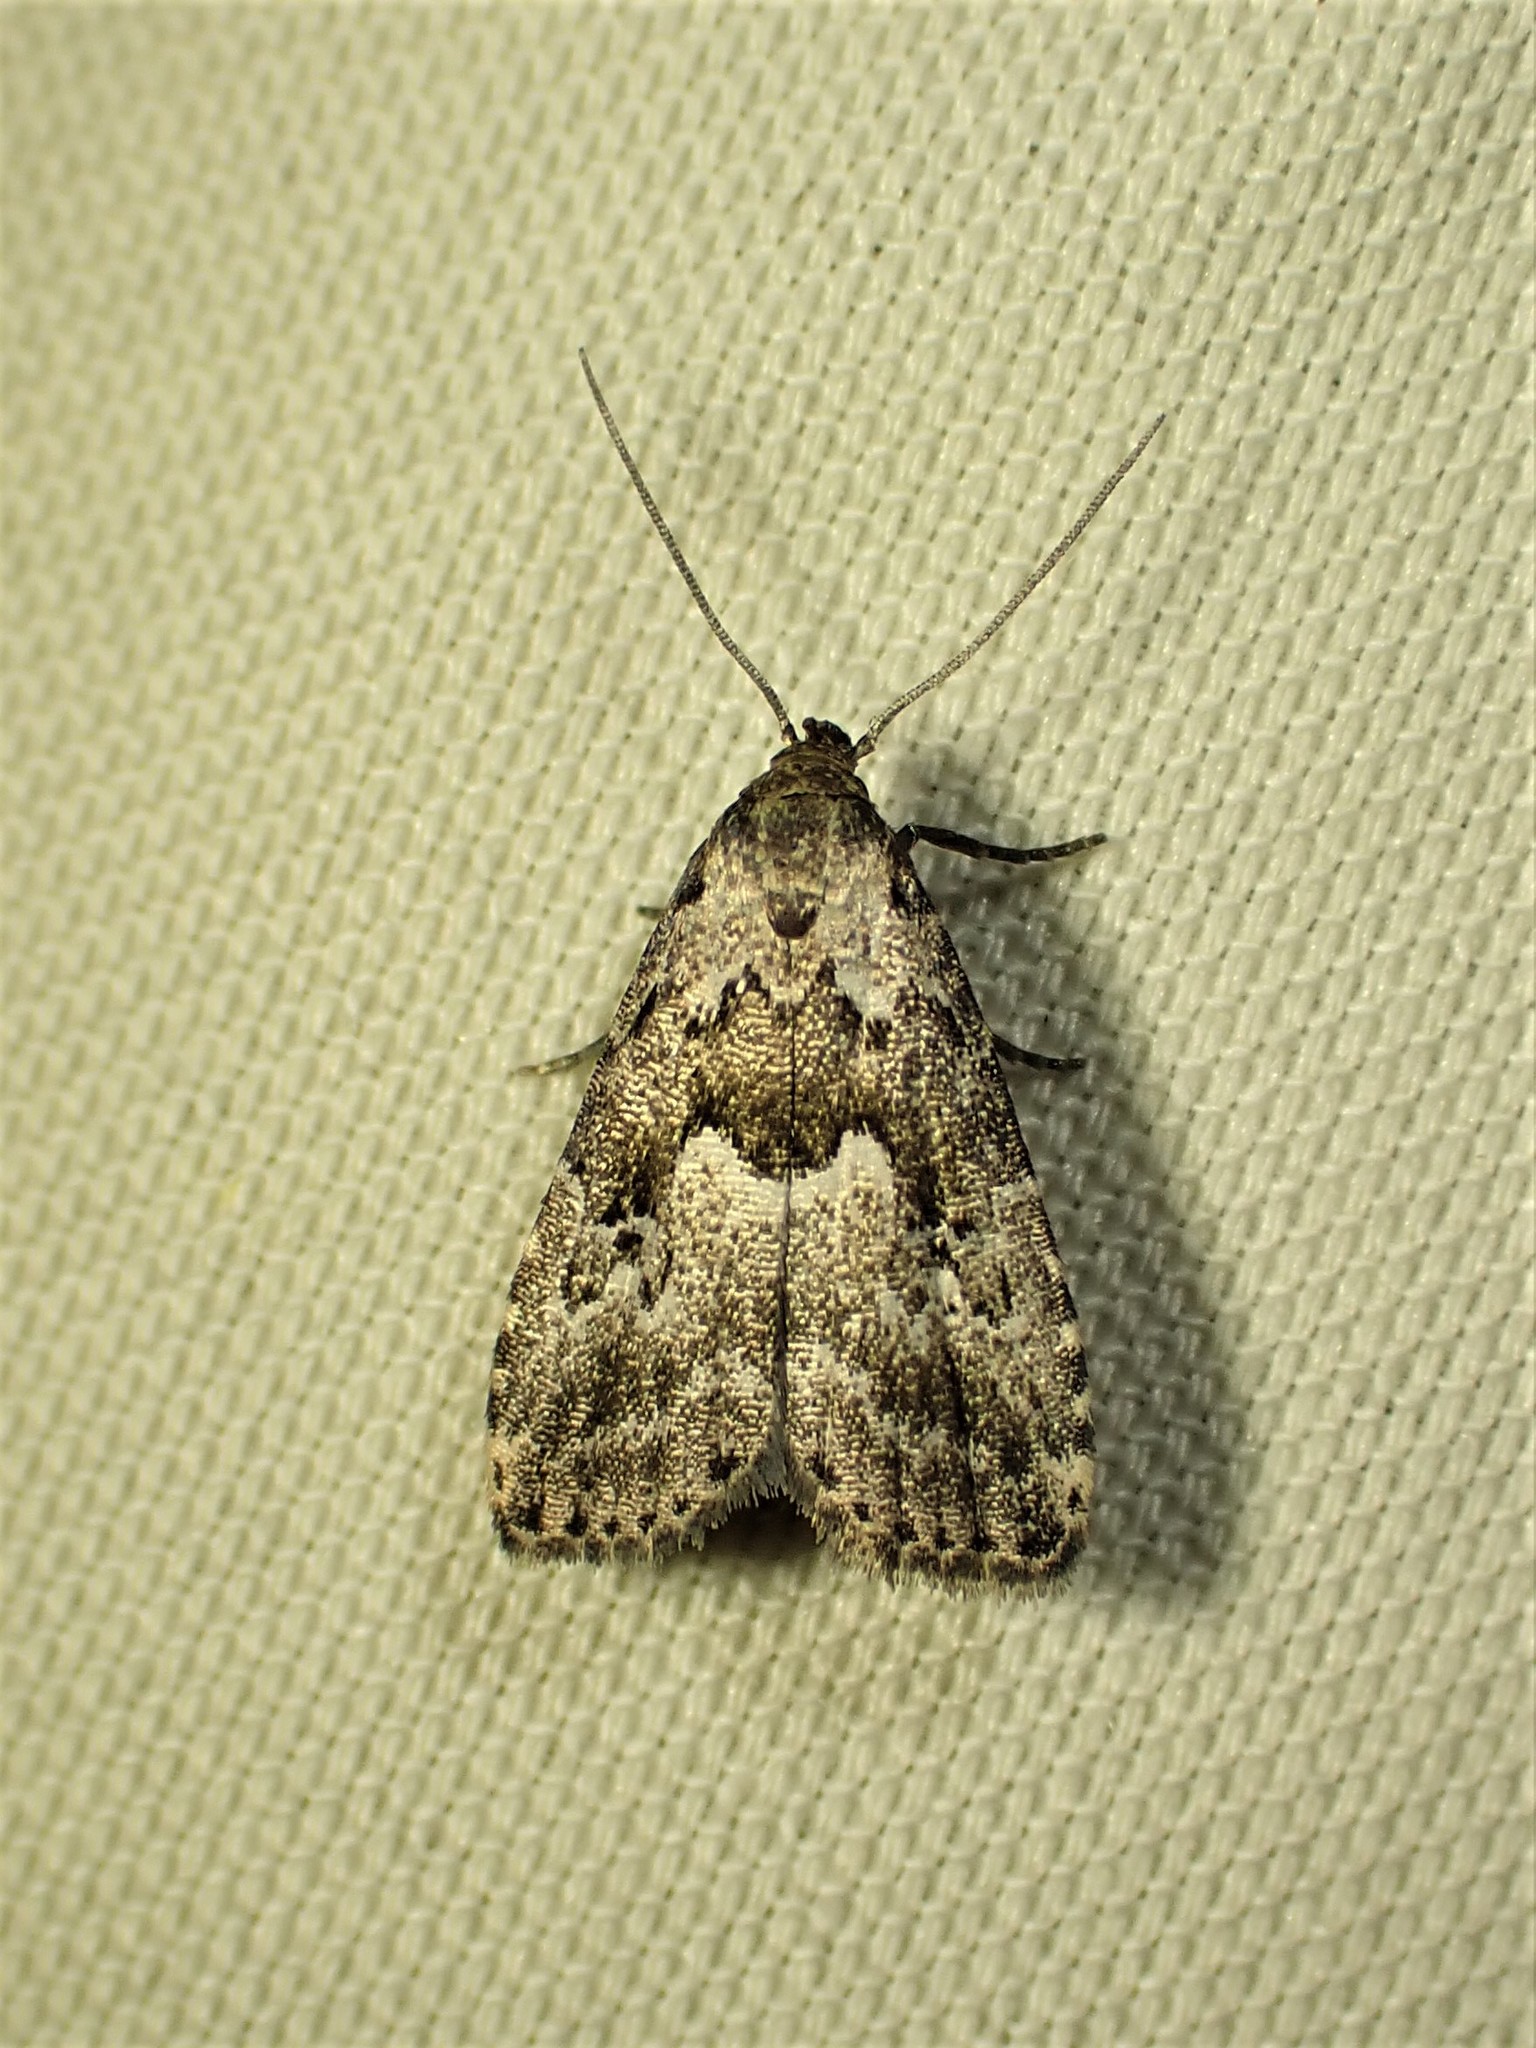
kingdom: Animalia
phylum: Arthropoda
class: Insecta
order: Lepidoptera
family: Erebidae
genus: Hypenodes
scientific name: Hypenodes franclemonti
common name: Franclemont's hypenodes moth
